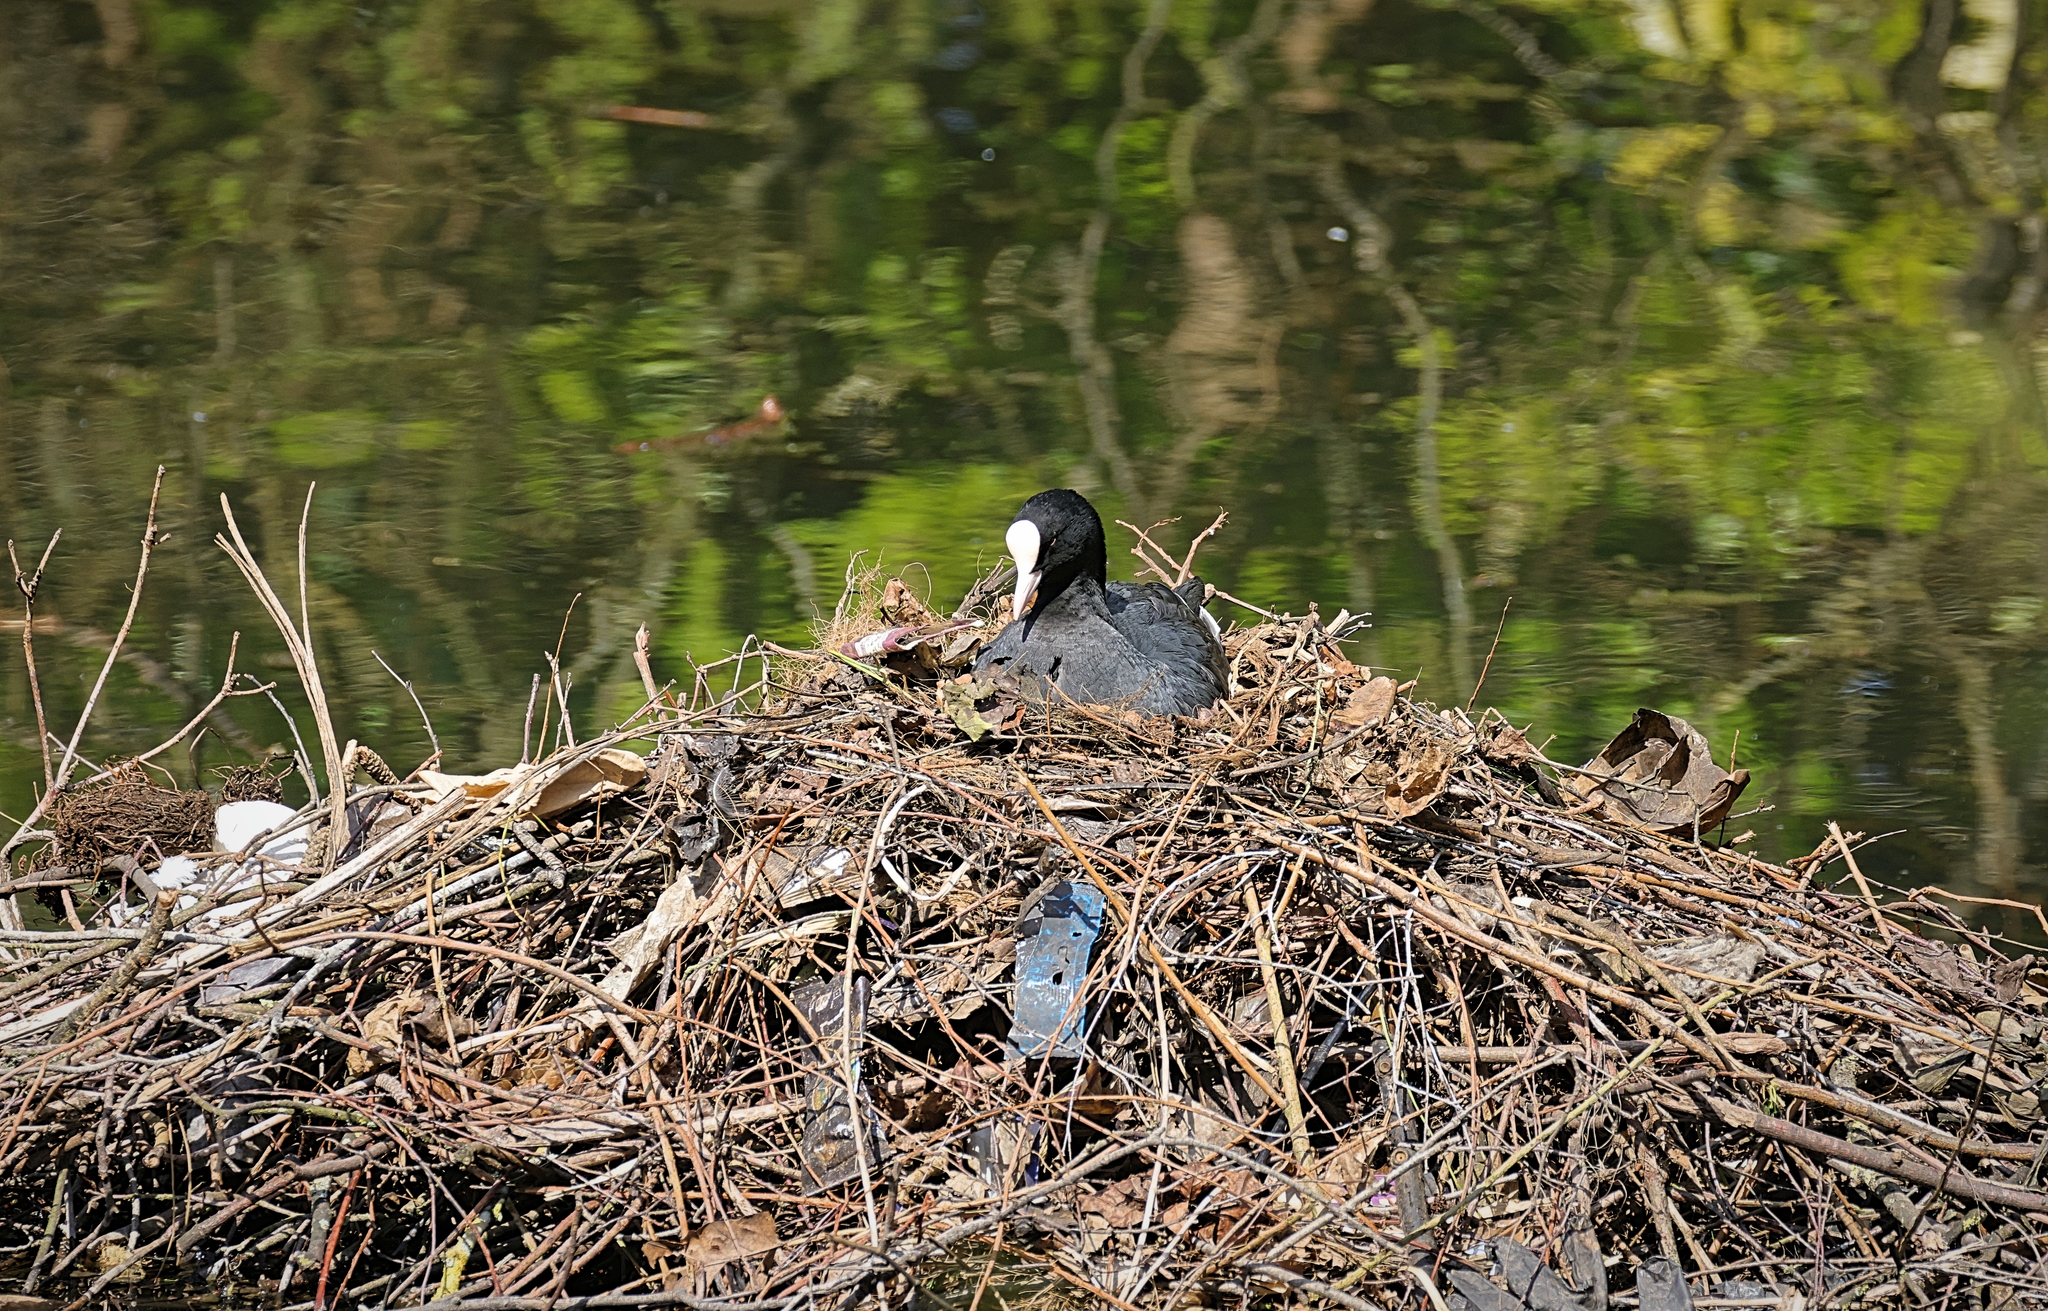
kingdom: Animalia
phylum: Chordata
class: Aves
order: Gruiformes
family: Rallidae
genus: Fulica
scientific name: Fulica atra
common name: Eurasian coot
